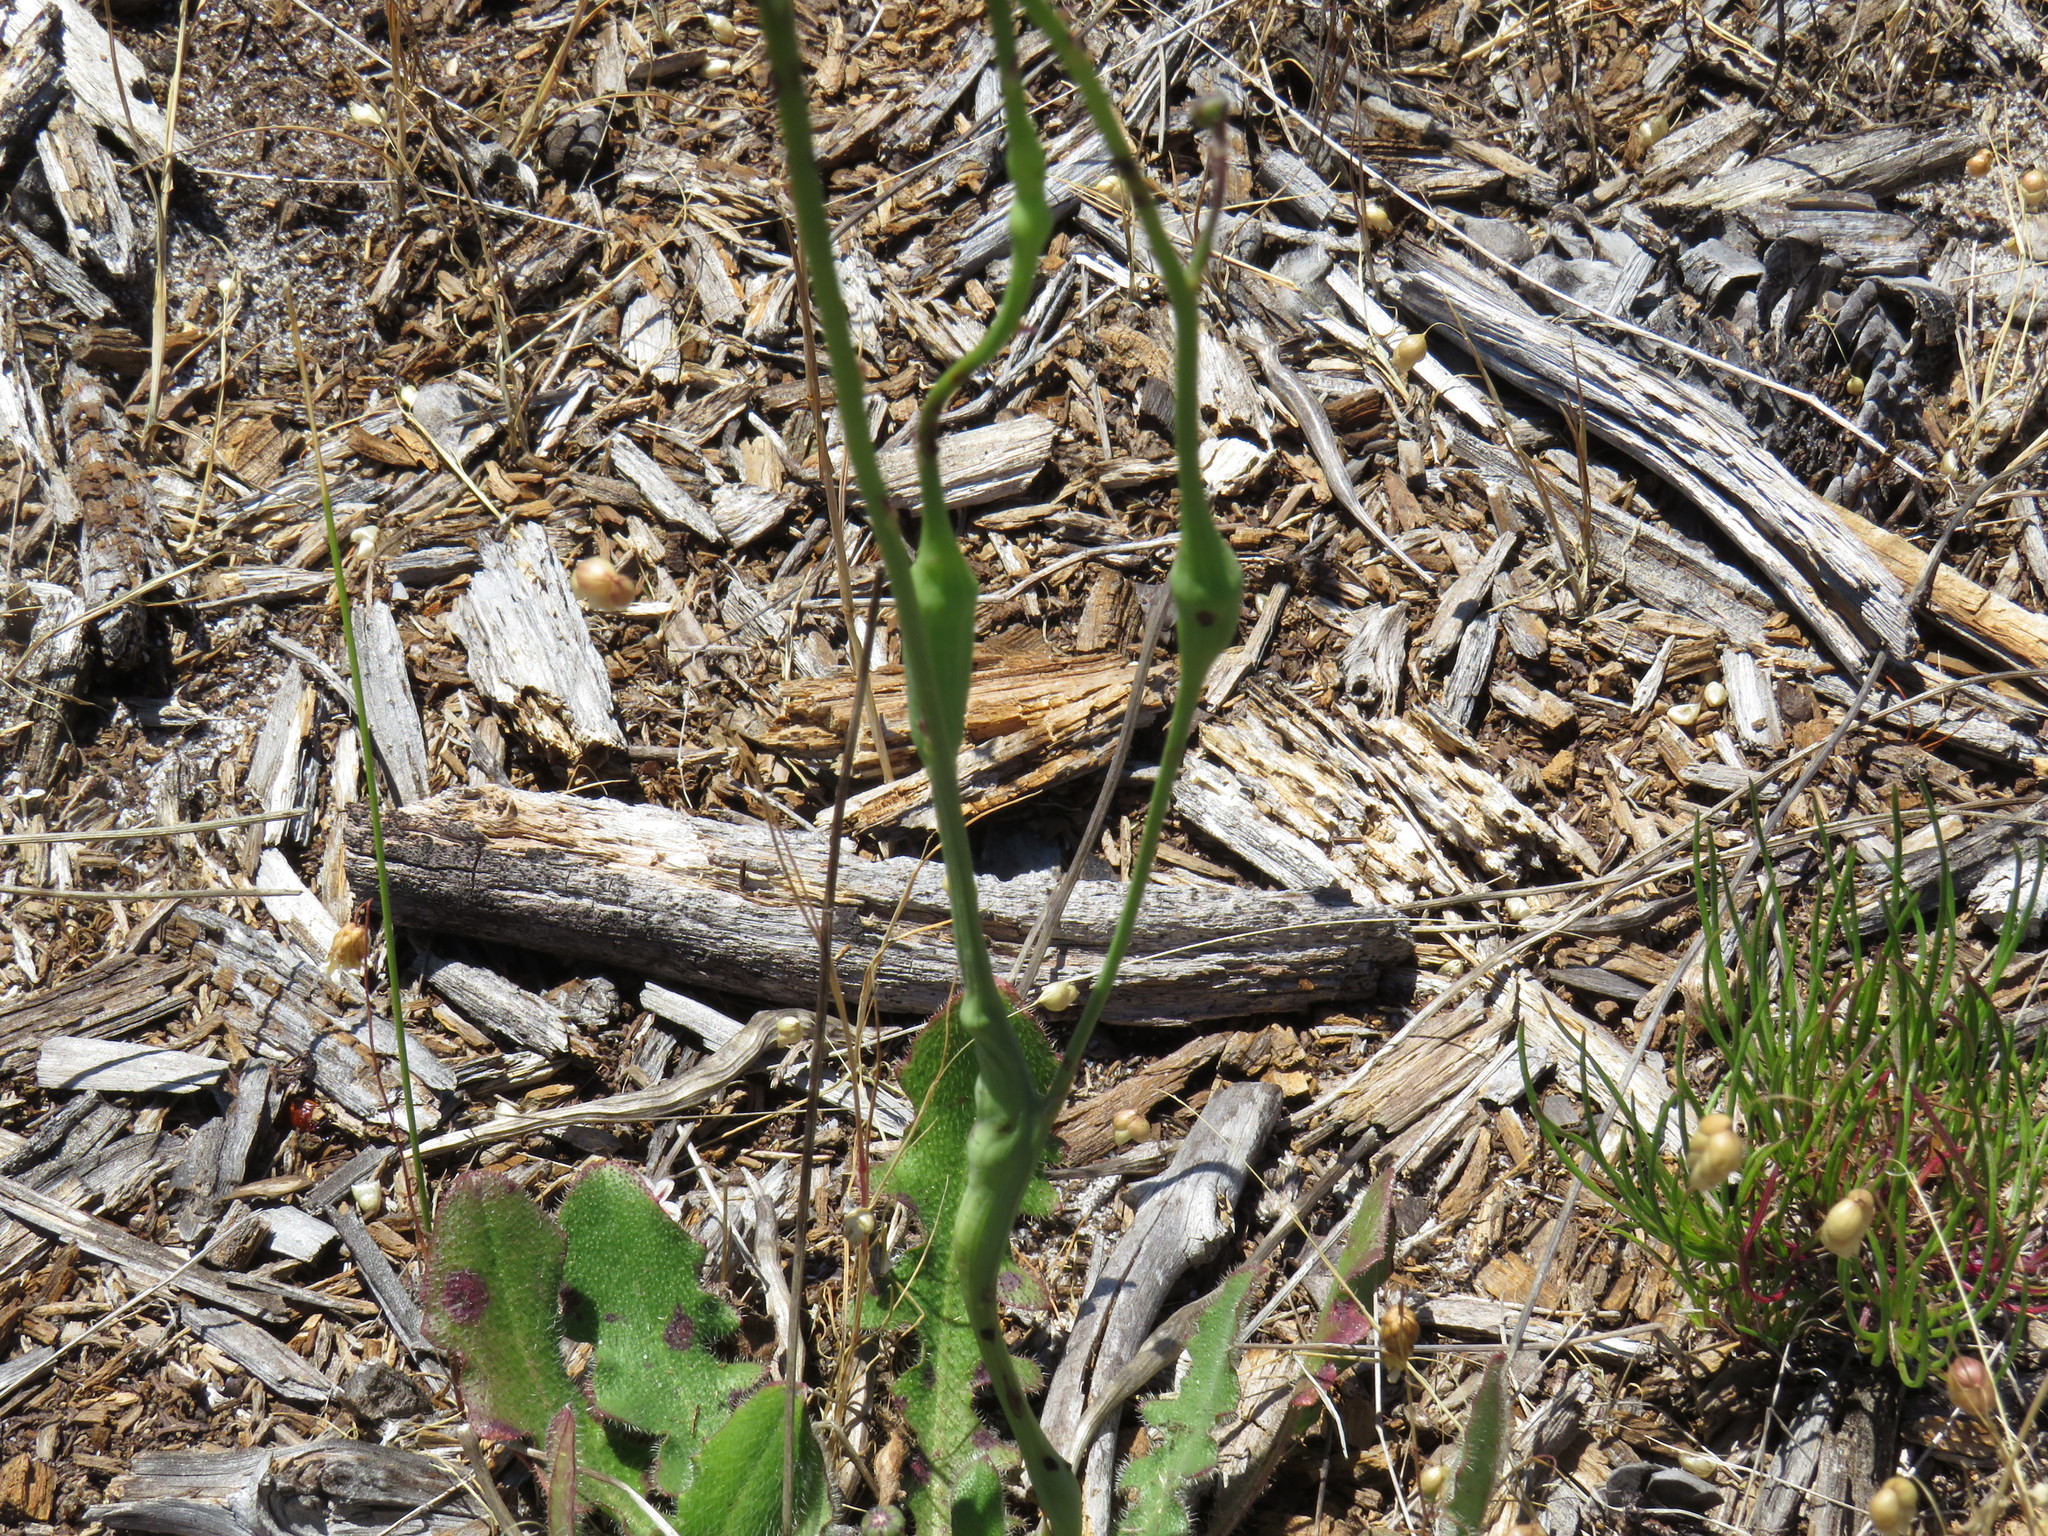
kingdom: Animalia
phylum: Arthropoda
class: Insecta
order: Hymenoptera
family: Cynipidae
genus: Phanacis
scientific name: Phanacis hypochoeridis
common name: Gall wasp
